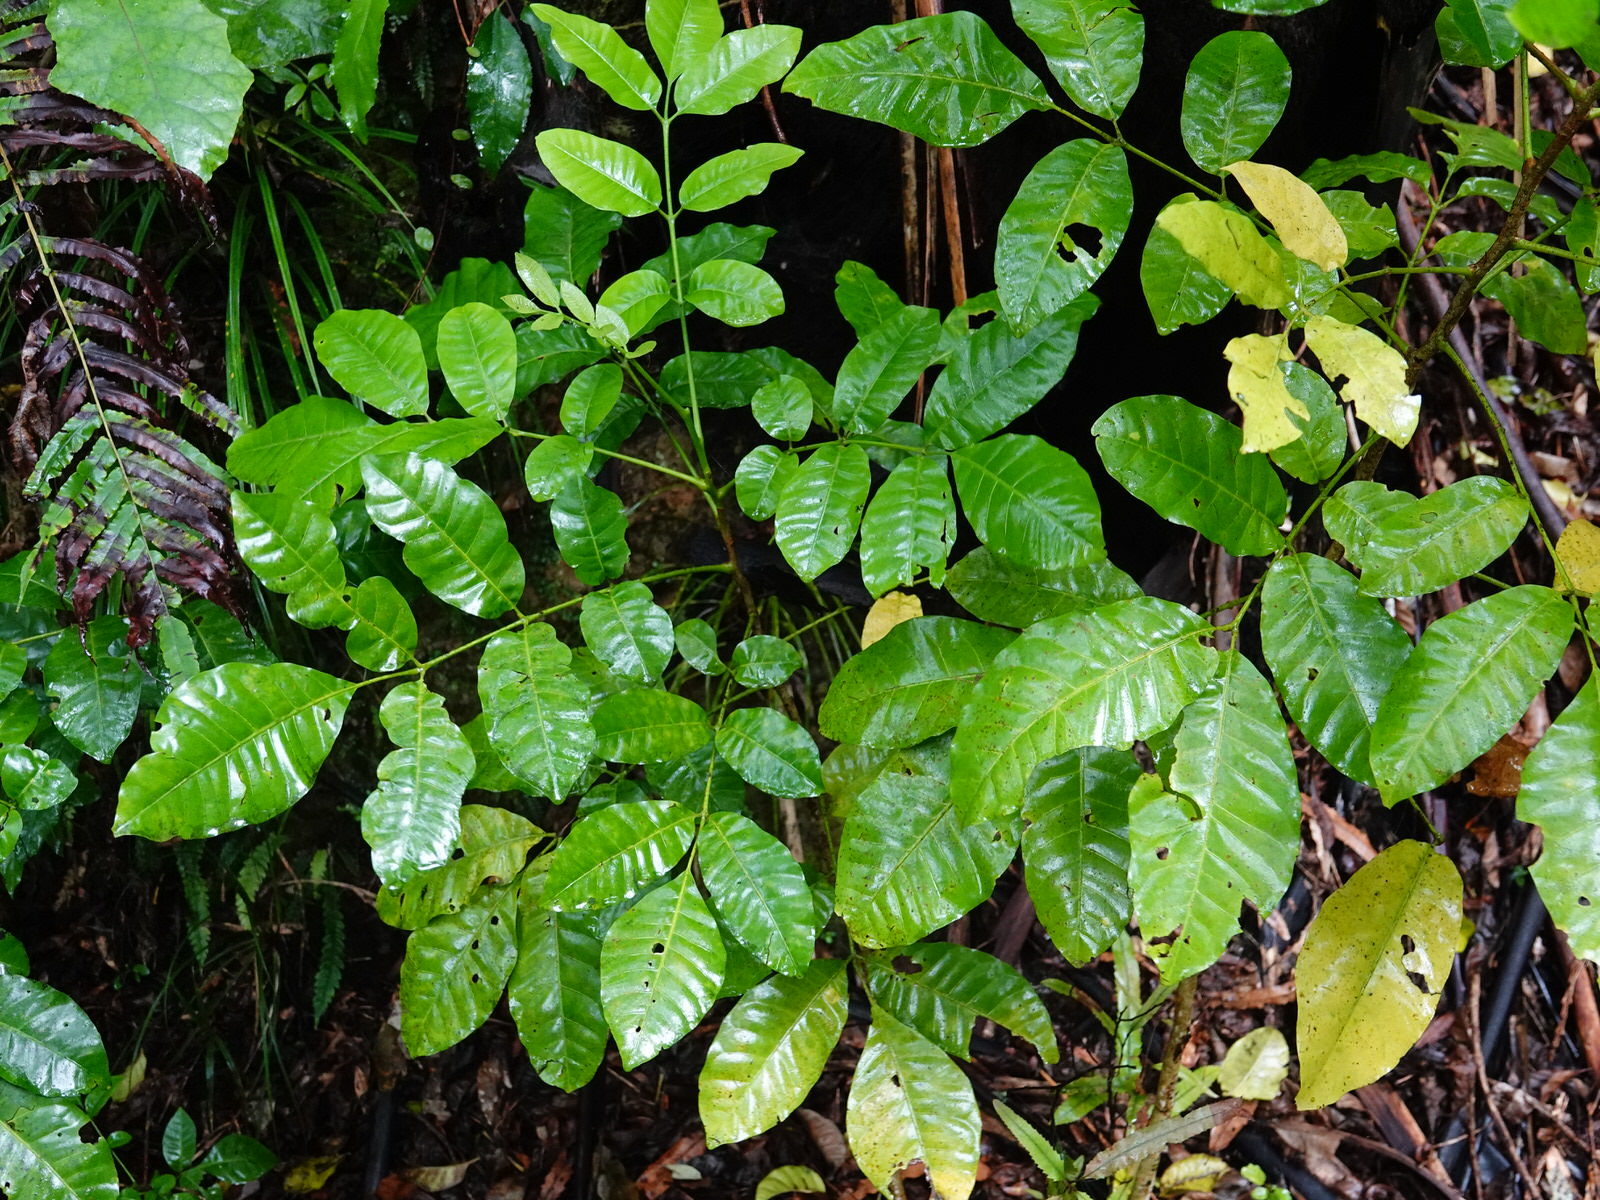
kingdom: Plantae
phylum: Tracheophyta
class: Magnoliopsida
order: Sapindales
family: Meliaceae
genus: Didymocheton
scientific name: Didymocheton spectabilis
